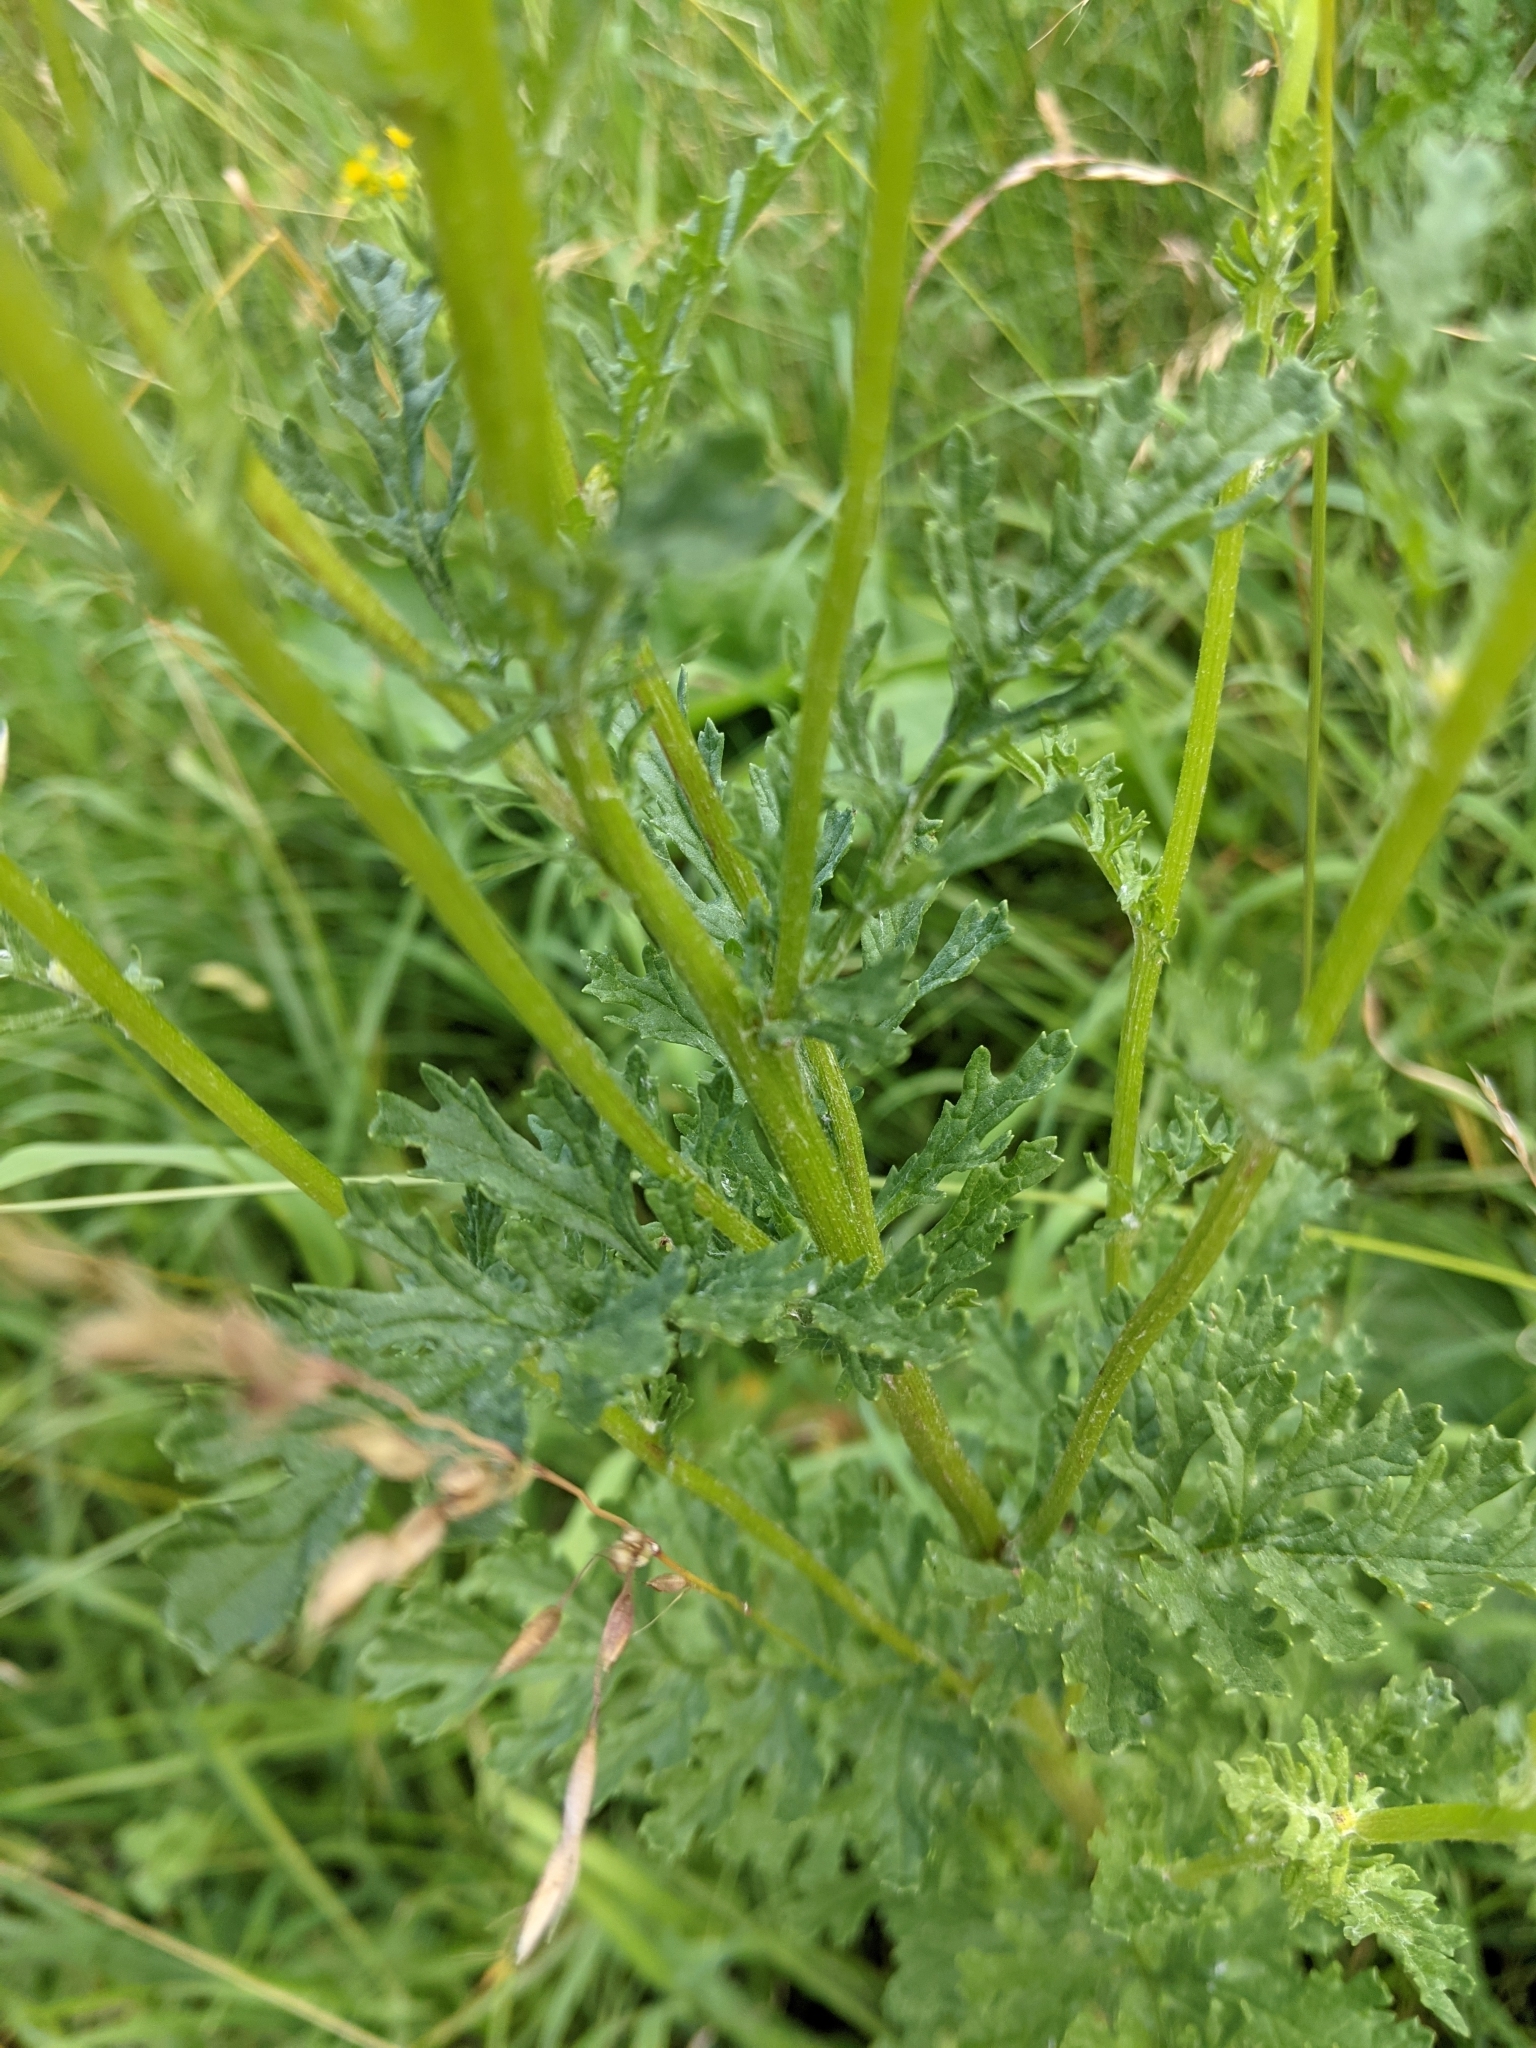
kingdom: Plantae
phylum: Tracheophyta
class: Magnoliopsida
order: Asterales
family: Asteraceae
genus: Jacobaea
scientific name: Jacobaea vulgaris
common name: Stinking willie
